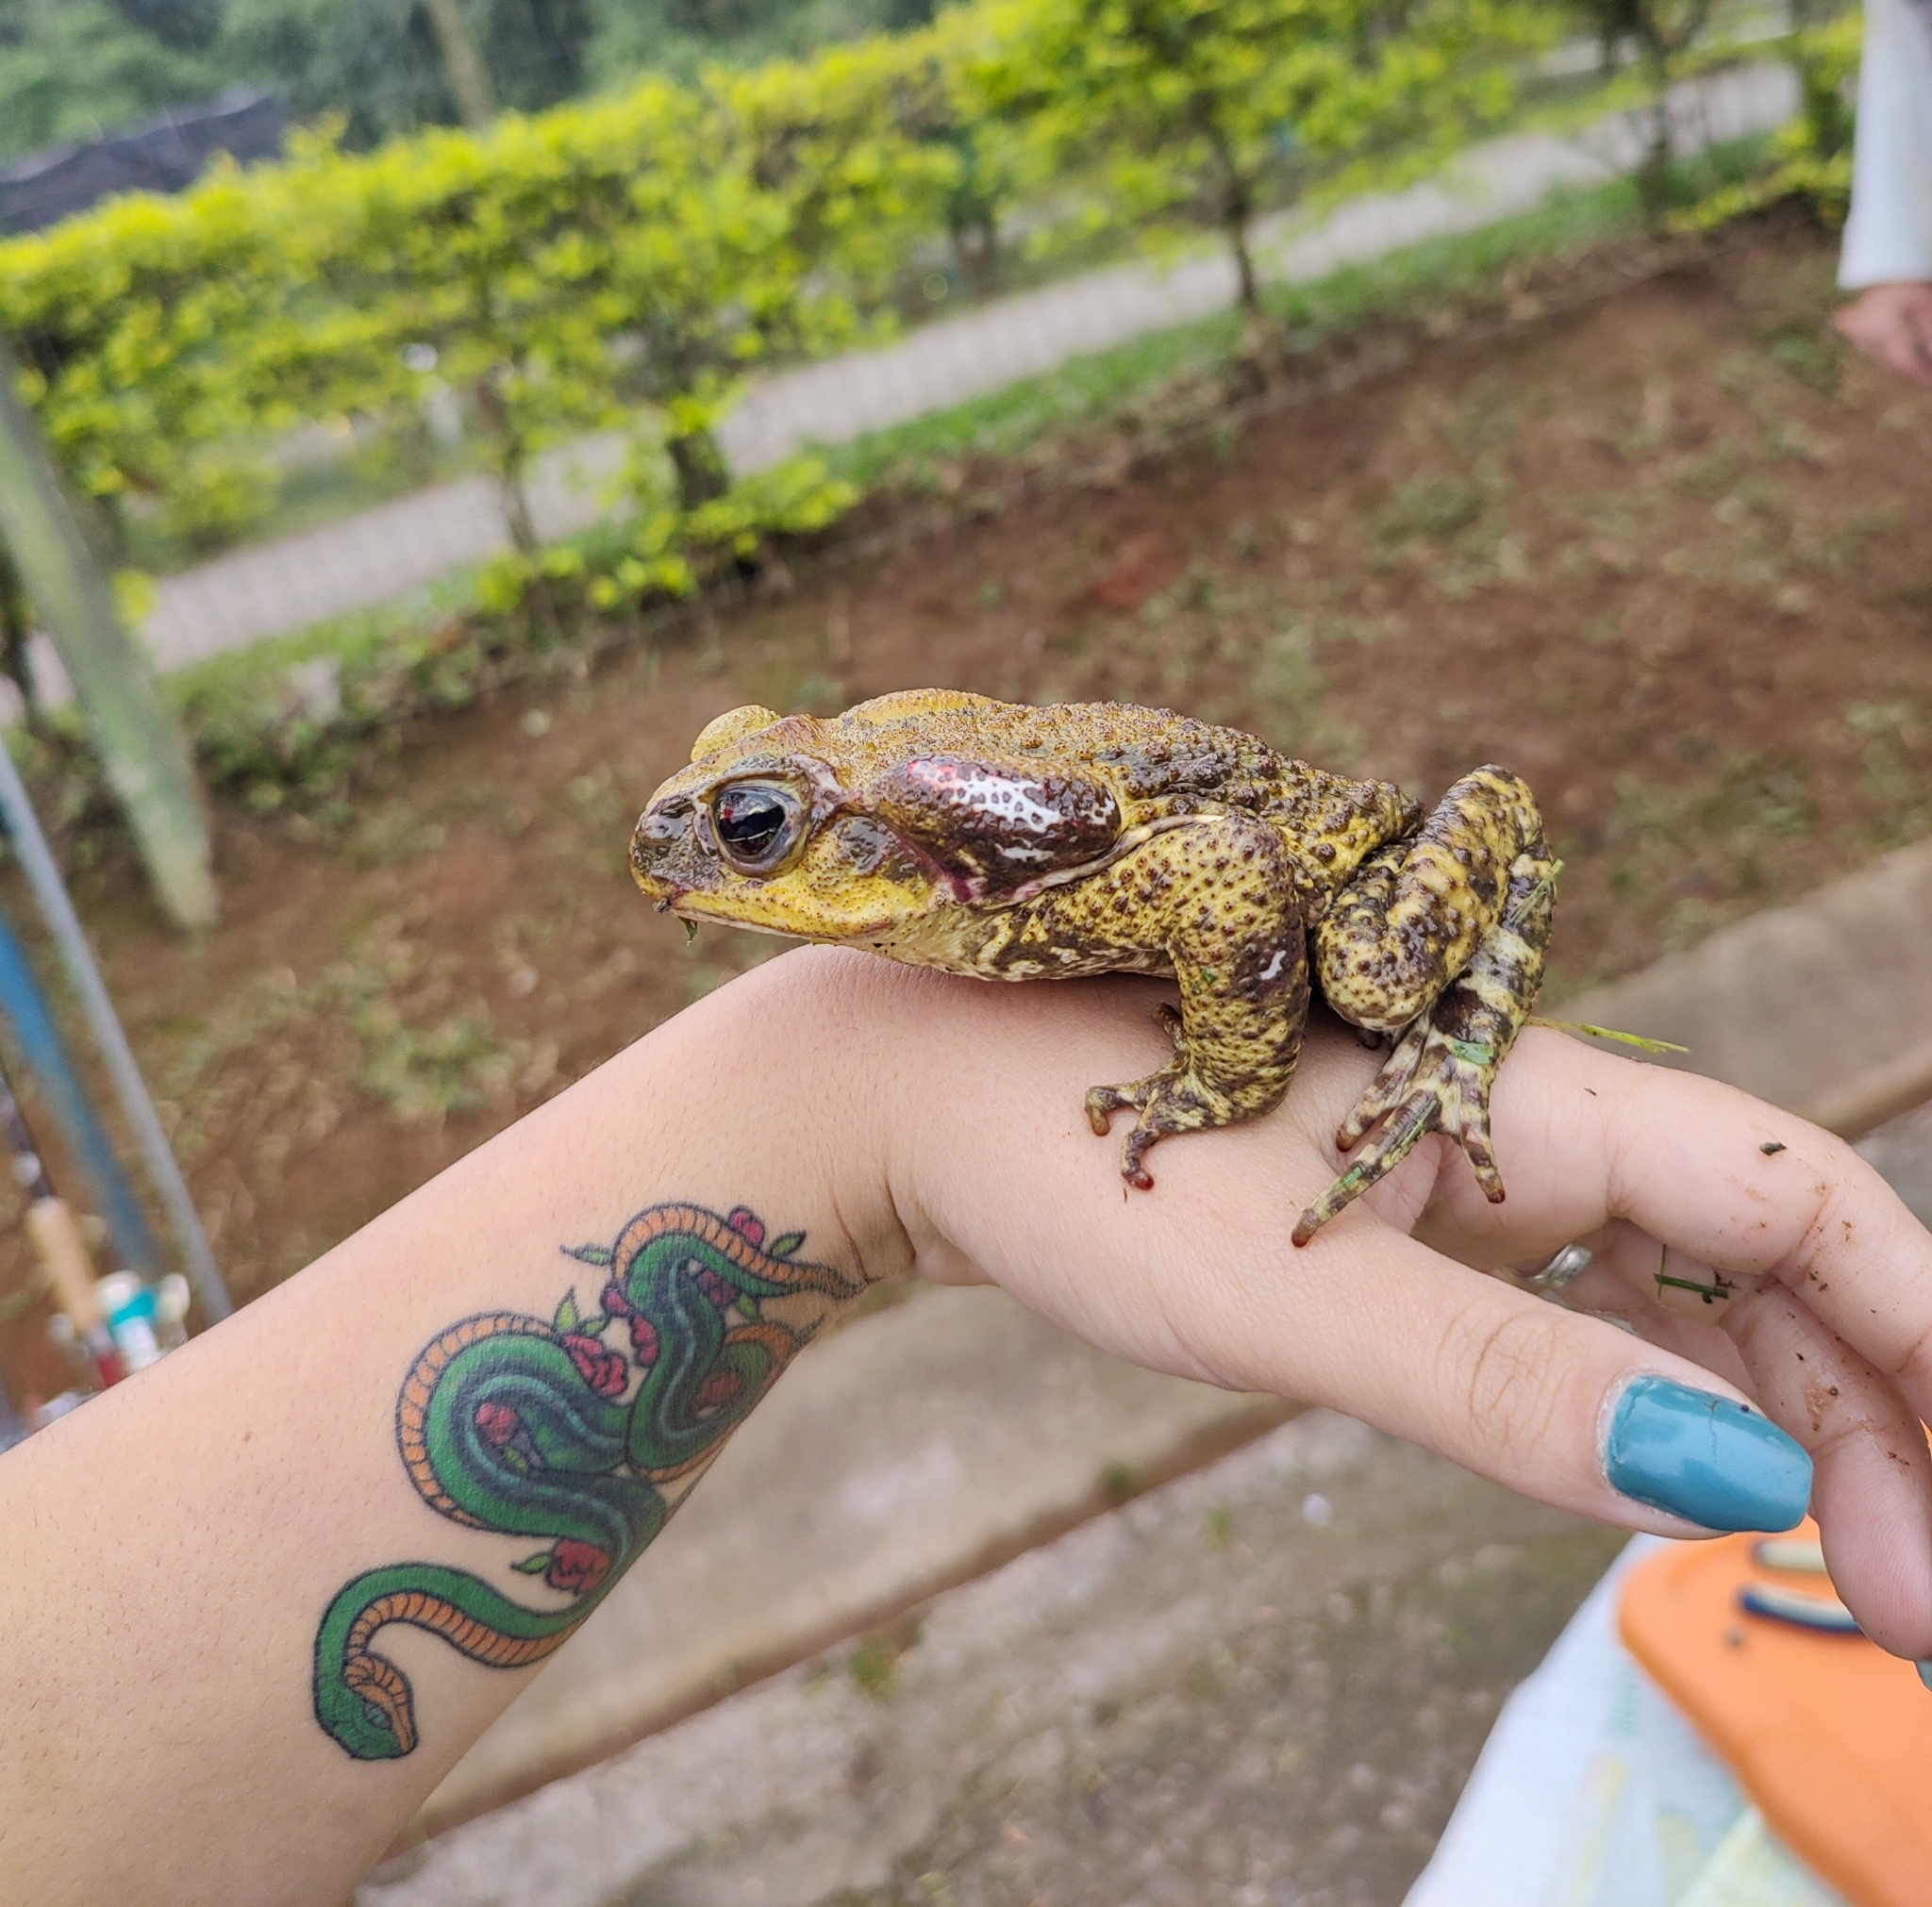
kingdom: Animalia
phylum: Chordata
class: Amphibia
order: Anura
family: Bufonidae
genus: Rhinella
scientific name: Rhinella icterica
